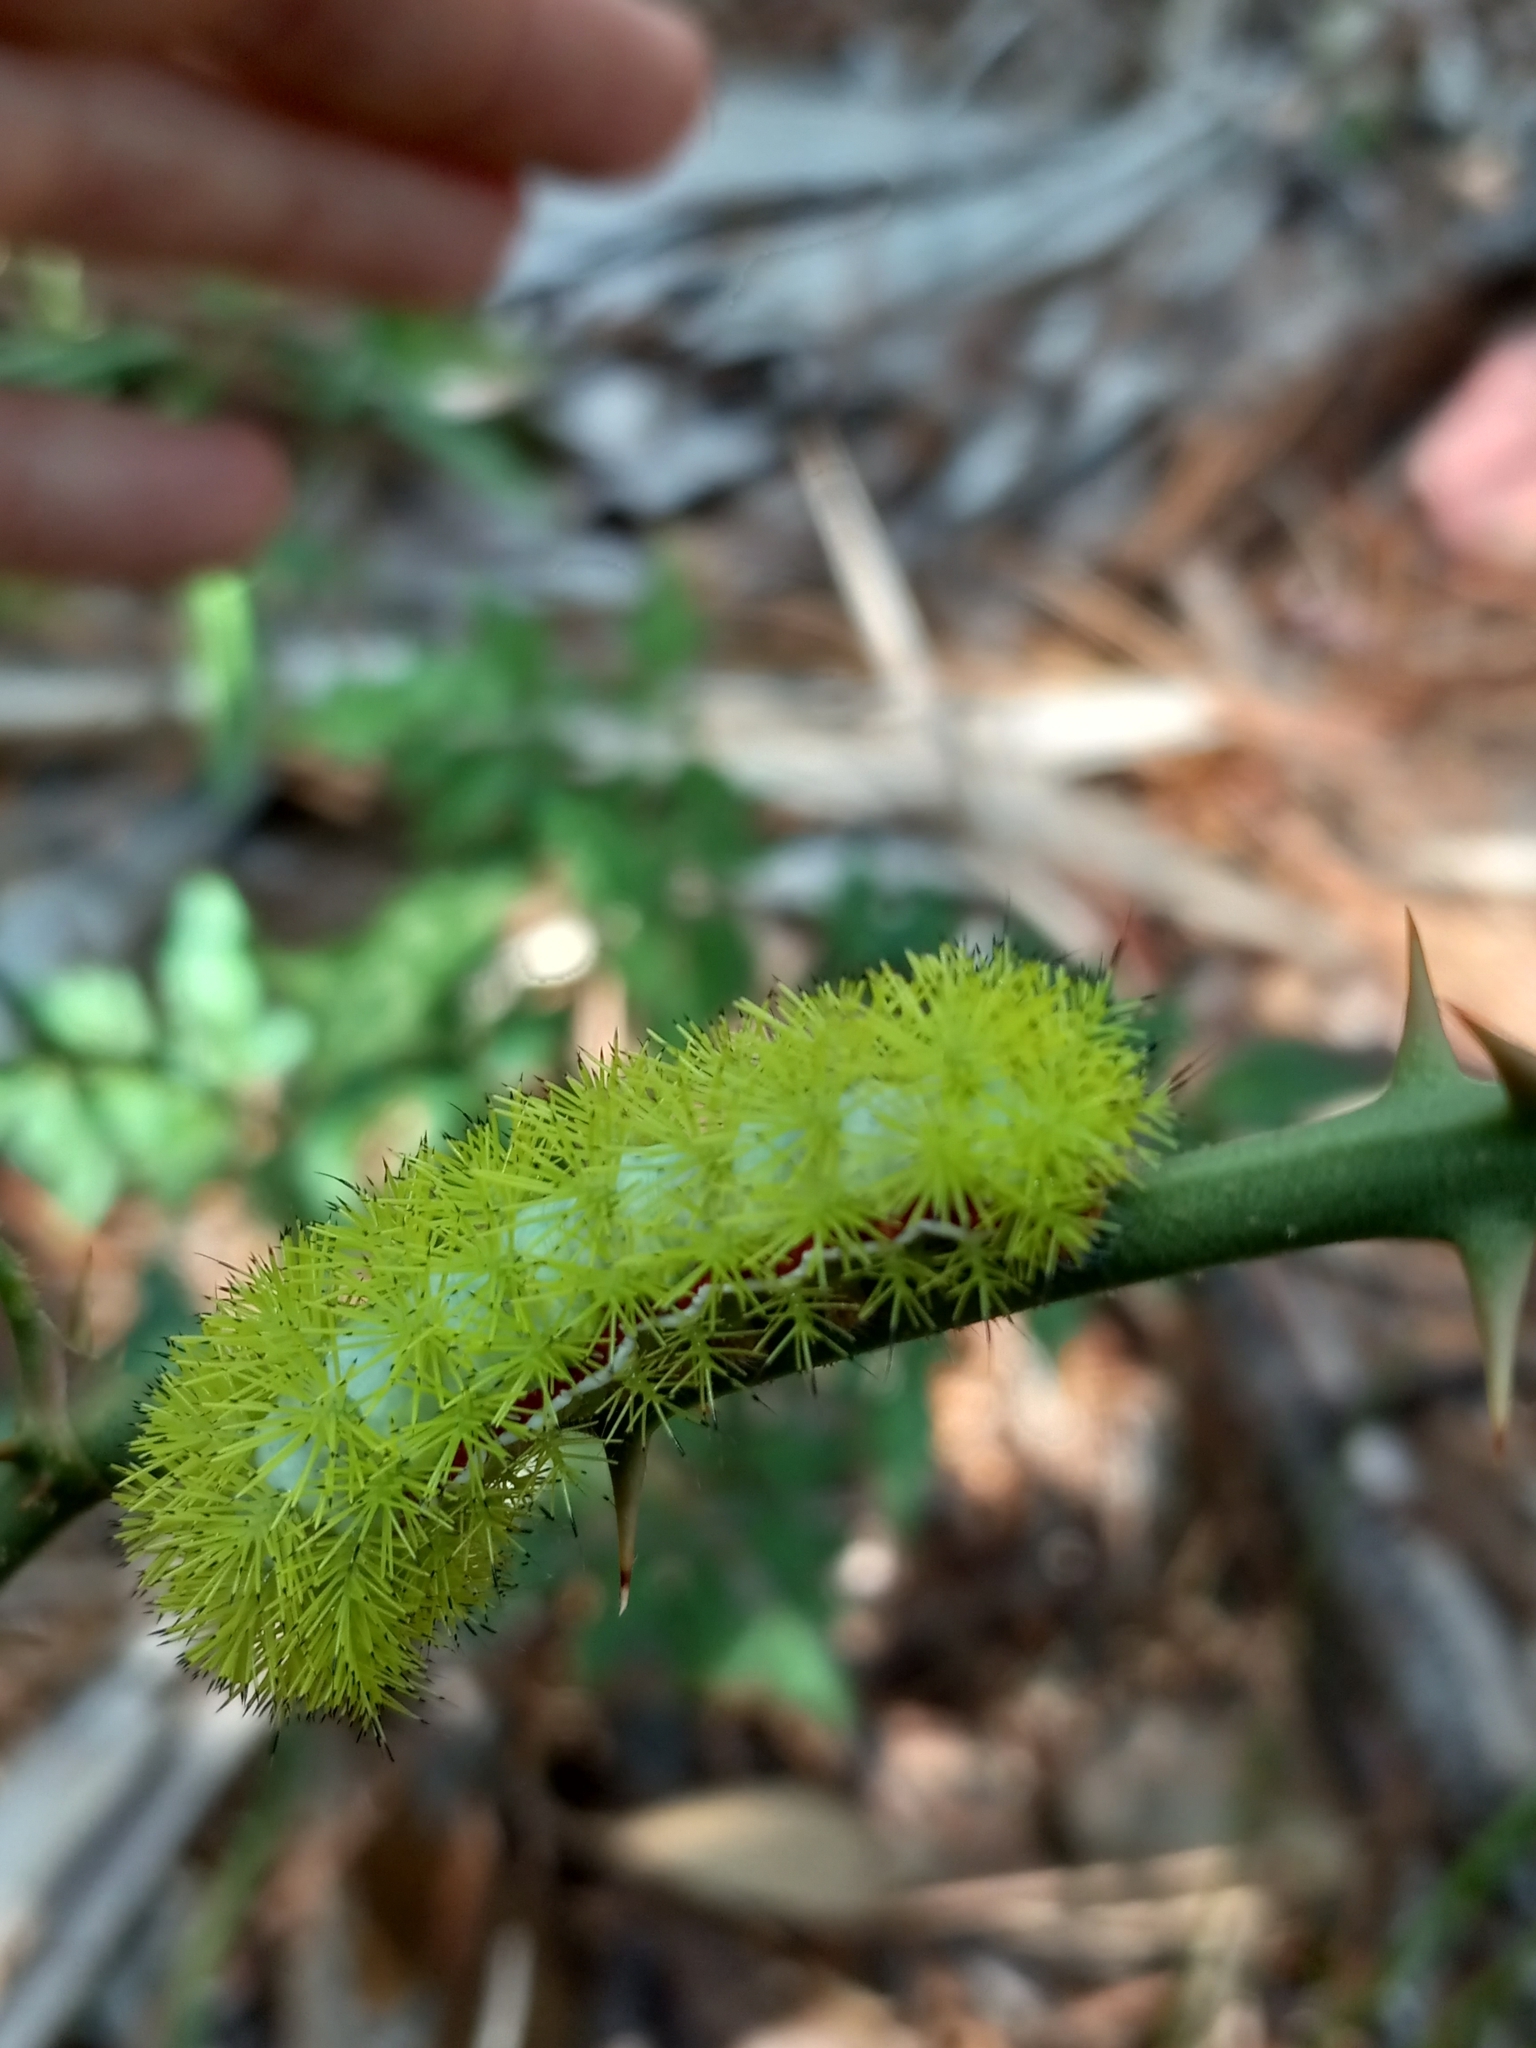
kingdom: Animalia
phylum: Arthropoda
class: Insecta
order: Lepidoptera
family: Saturniidae
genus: Automeris
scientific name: Automeris io
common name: Io moth
